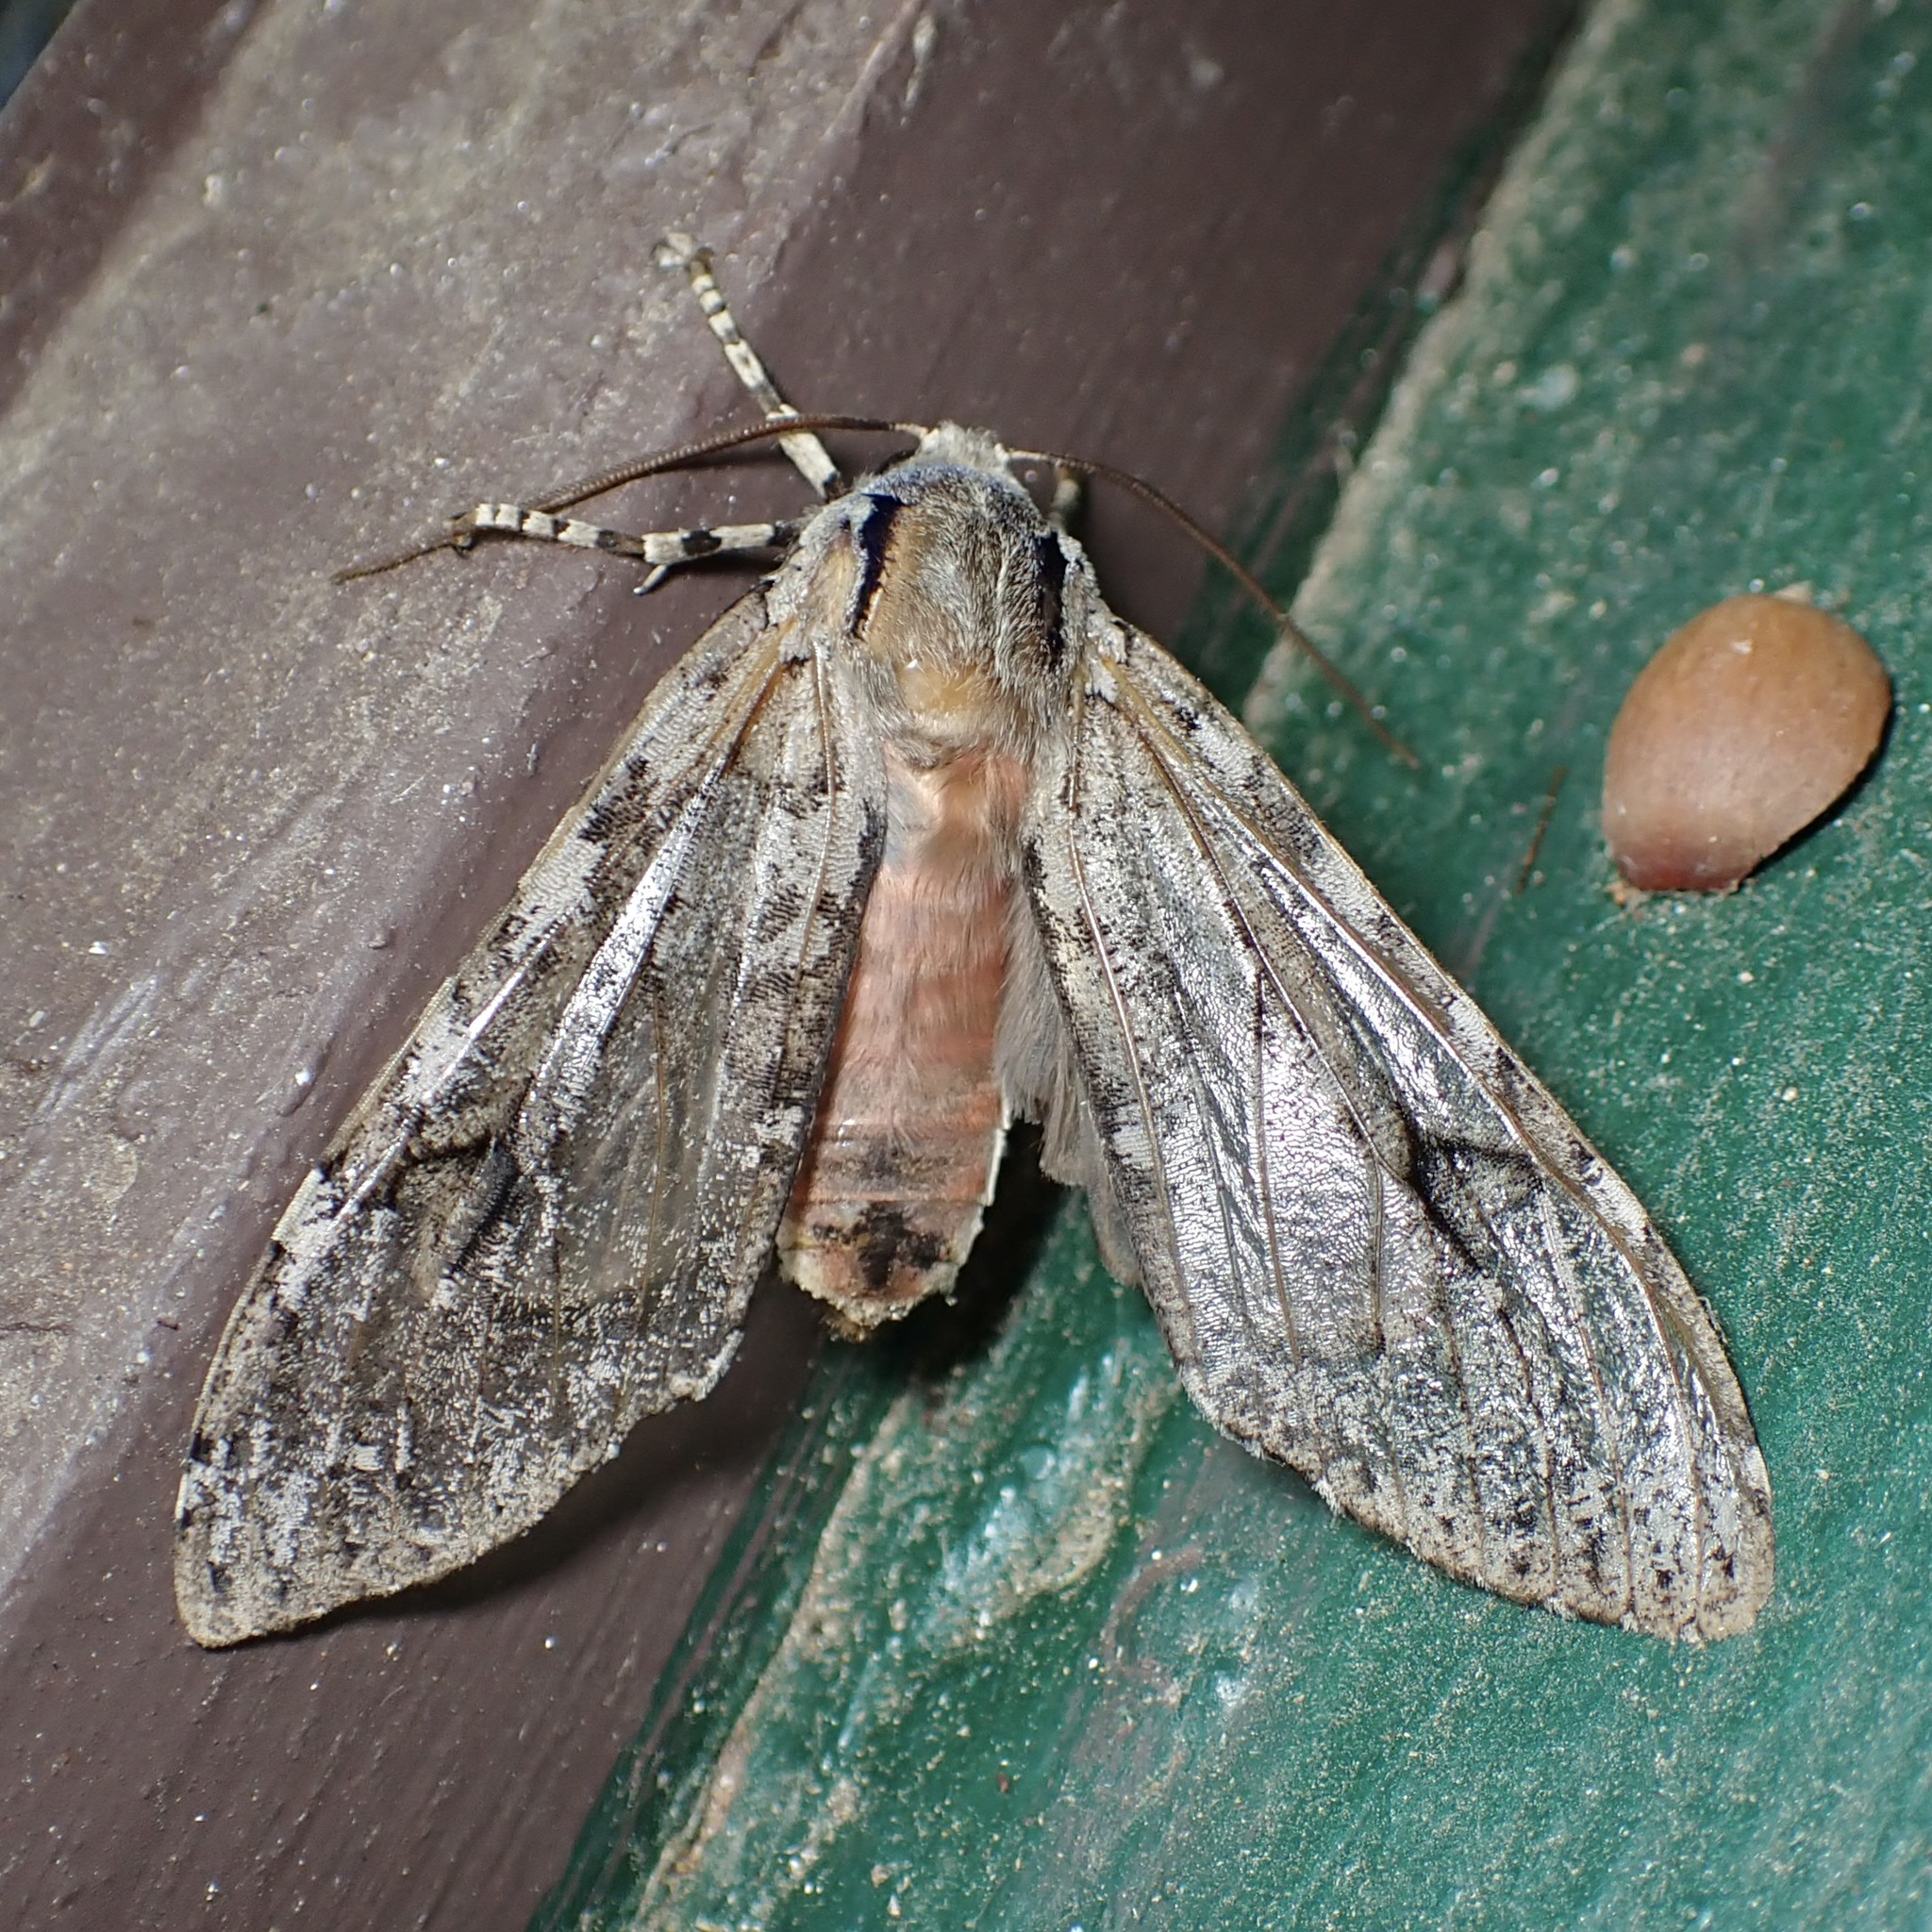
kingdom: Animalia
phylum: Arthropoda
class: Insecta
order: Lepidoptera
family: Erebidae
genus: Hemihyalea
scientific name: Hemihyalea splendens
